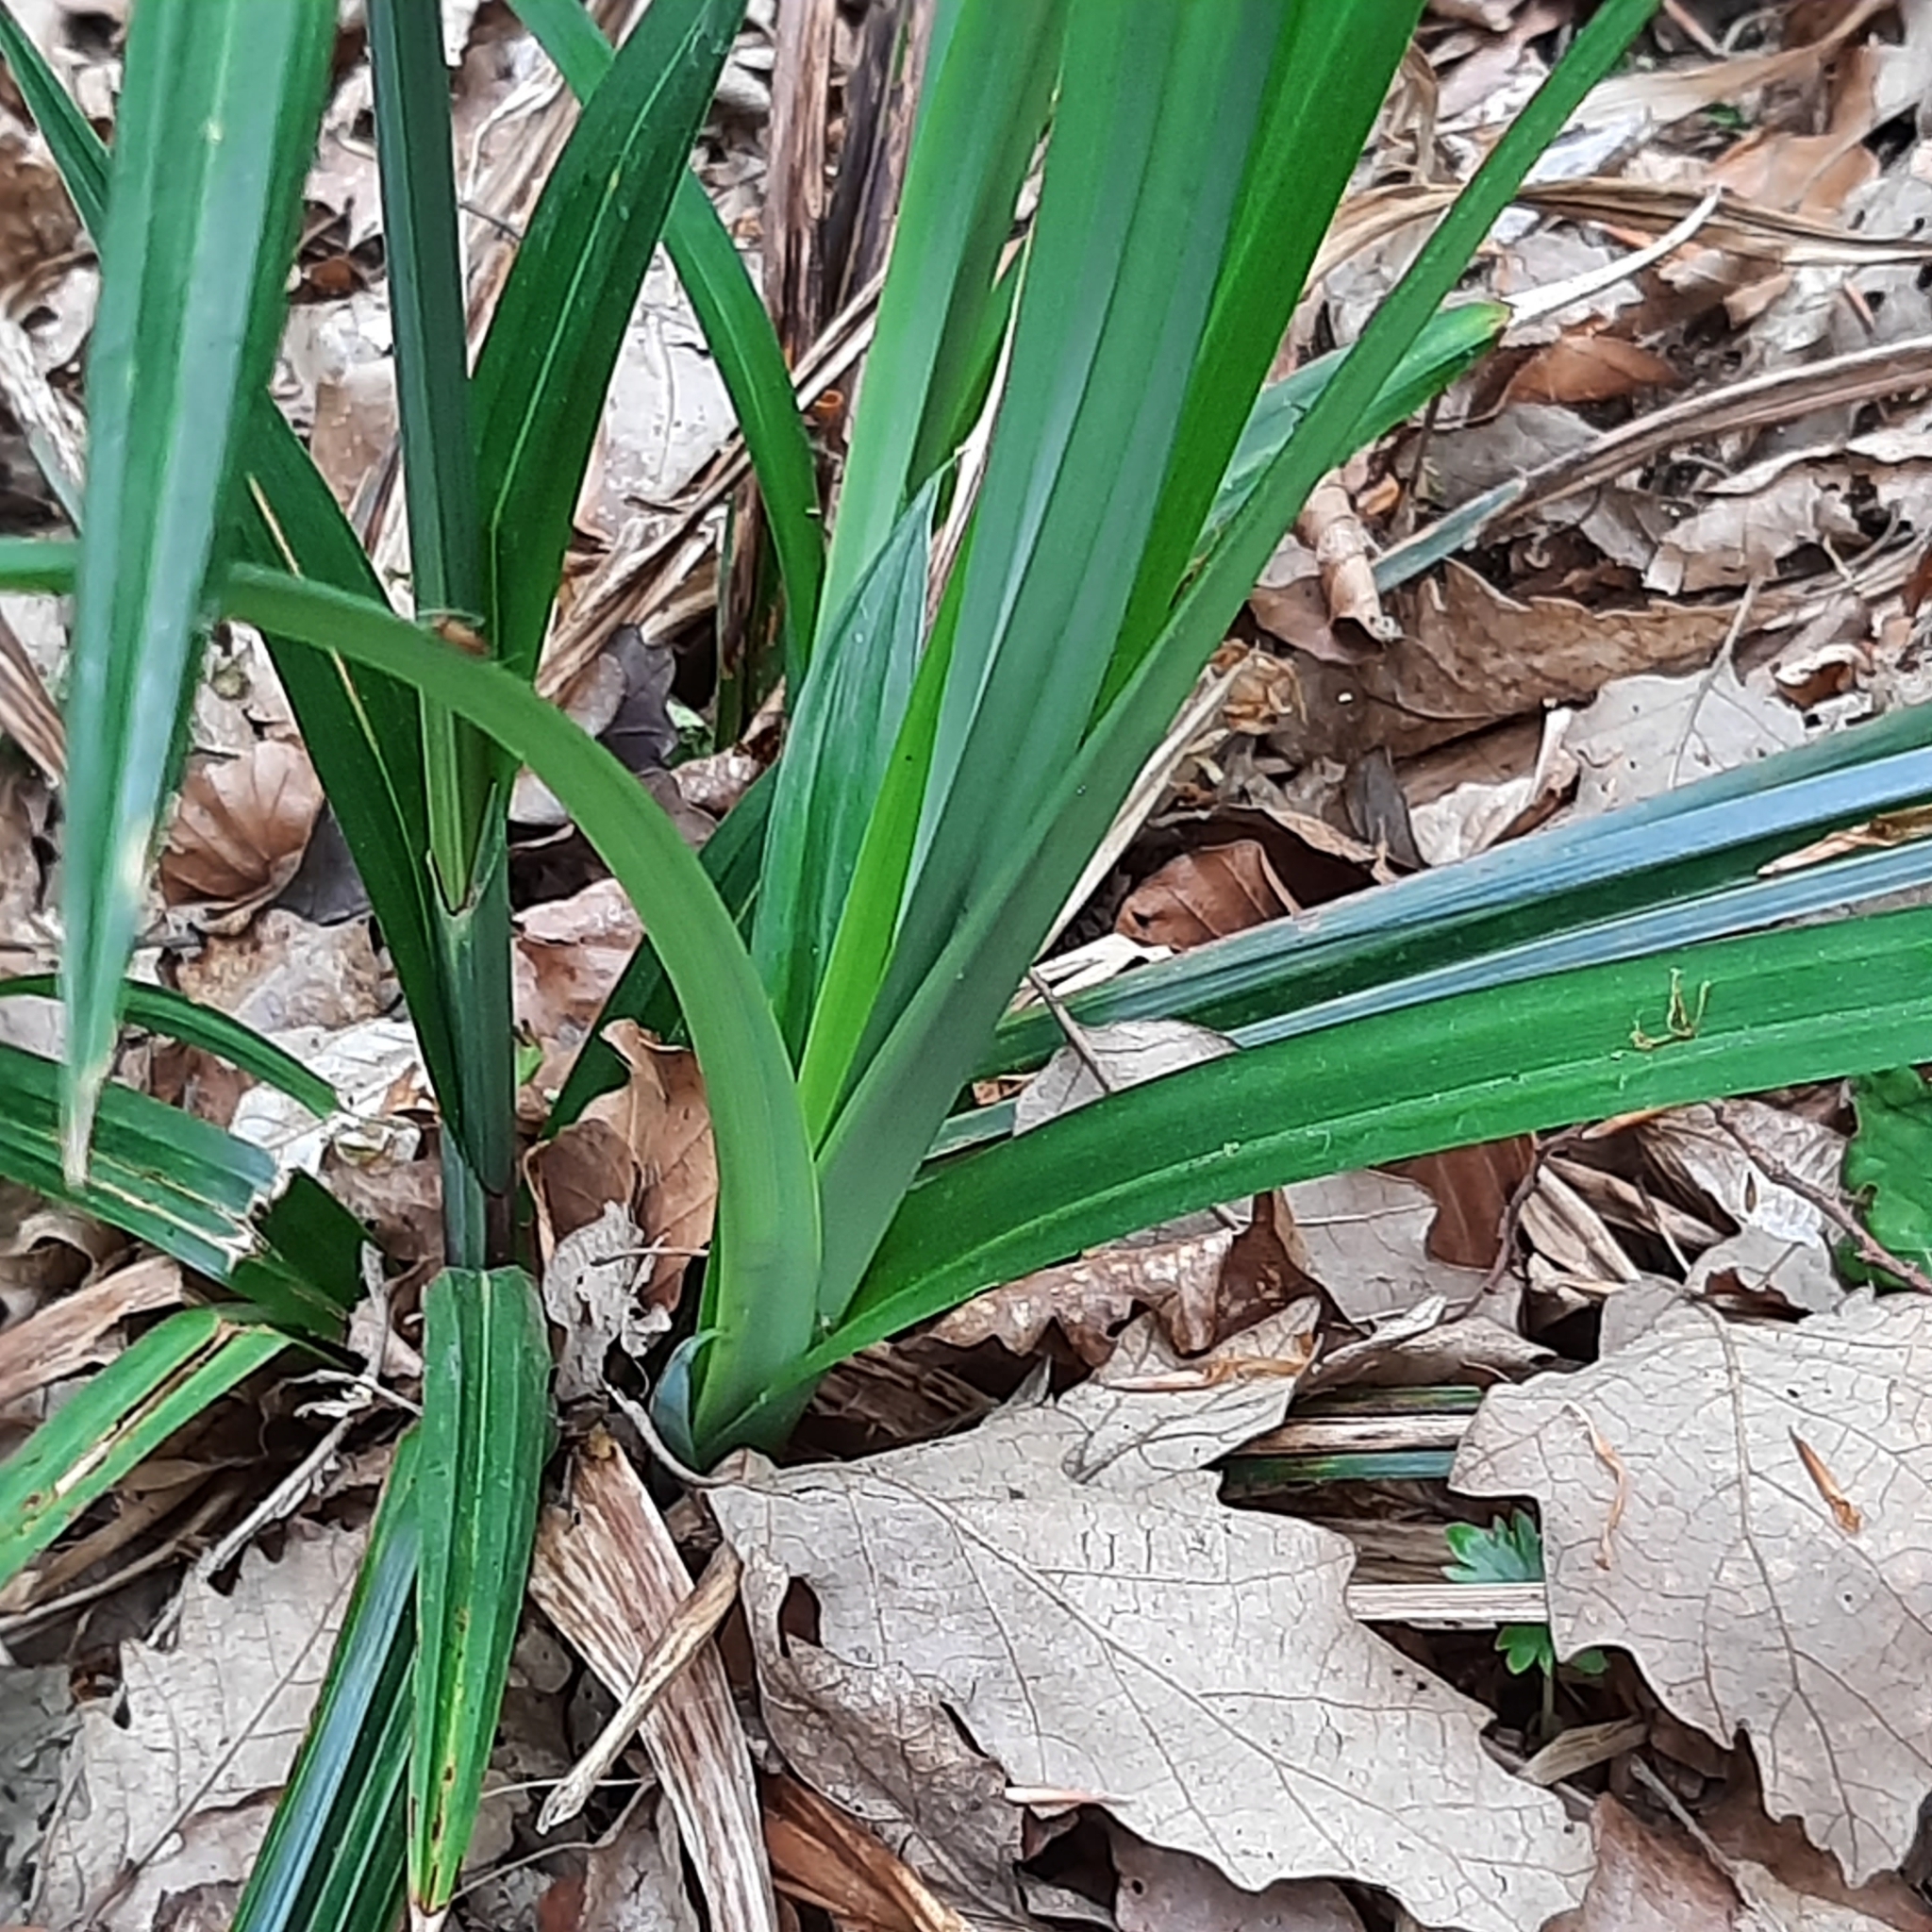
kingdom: Plantae
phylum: Tracheophyta
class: Liliopsida
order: Poales
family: Cyperaceae
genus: Carex
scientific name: Carex pendula
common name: Pendulous sedge
